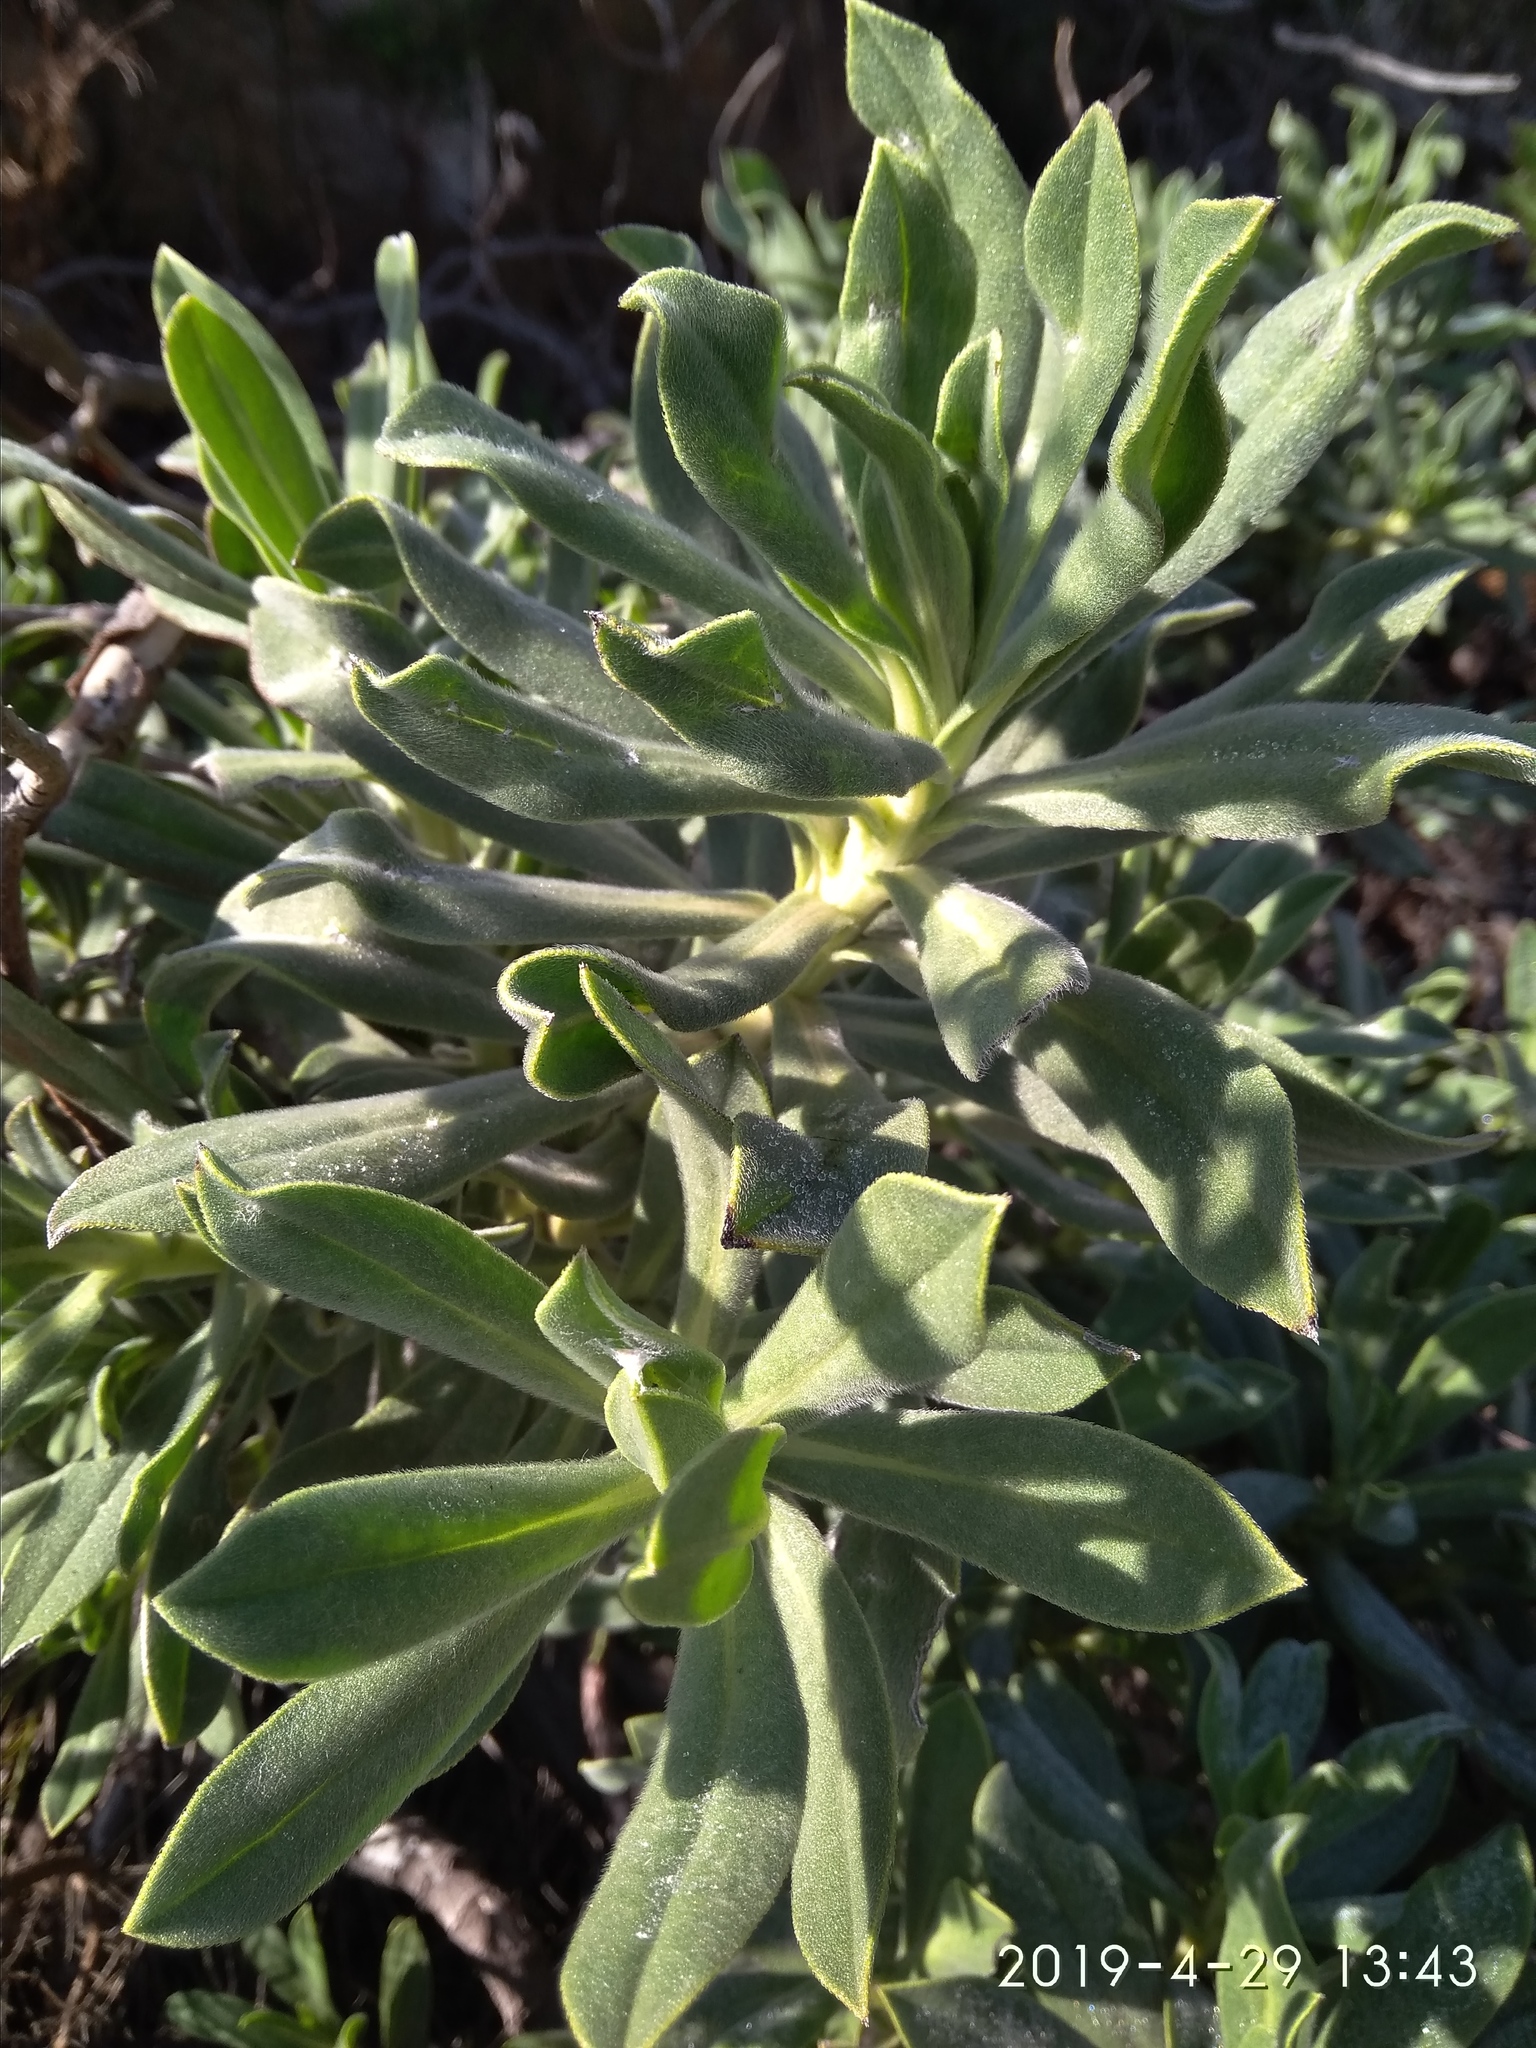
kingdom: Plantae
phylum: Tracheophyta
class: Magnoliopsida
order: Boraginales
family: Boraginaceae
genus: Lobostemon
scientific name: Lobostemon montanus
